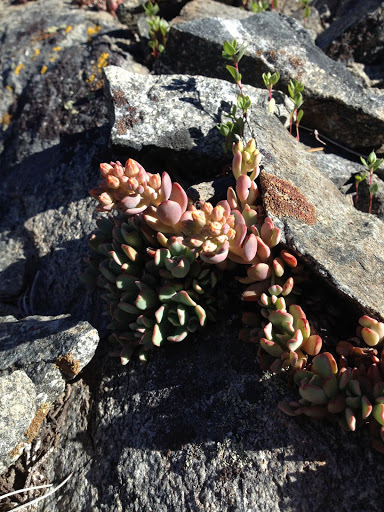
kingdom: Plantae
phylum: Tracheophyta
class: Magnoliopsida
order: Saxifragales
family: Crassulaceae
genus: Sedum
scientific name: Sedum obtusatum
